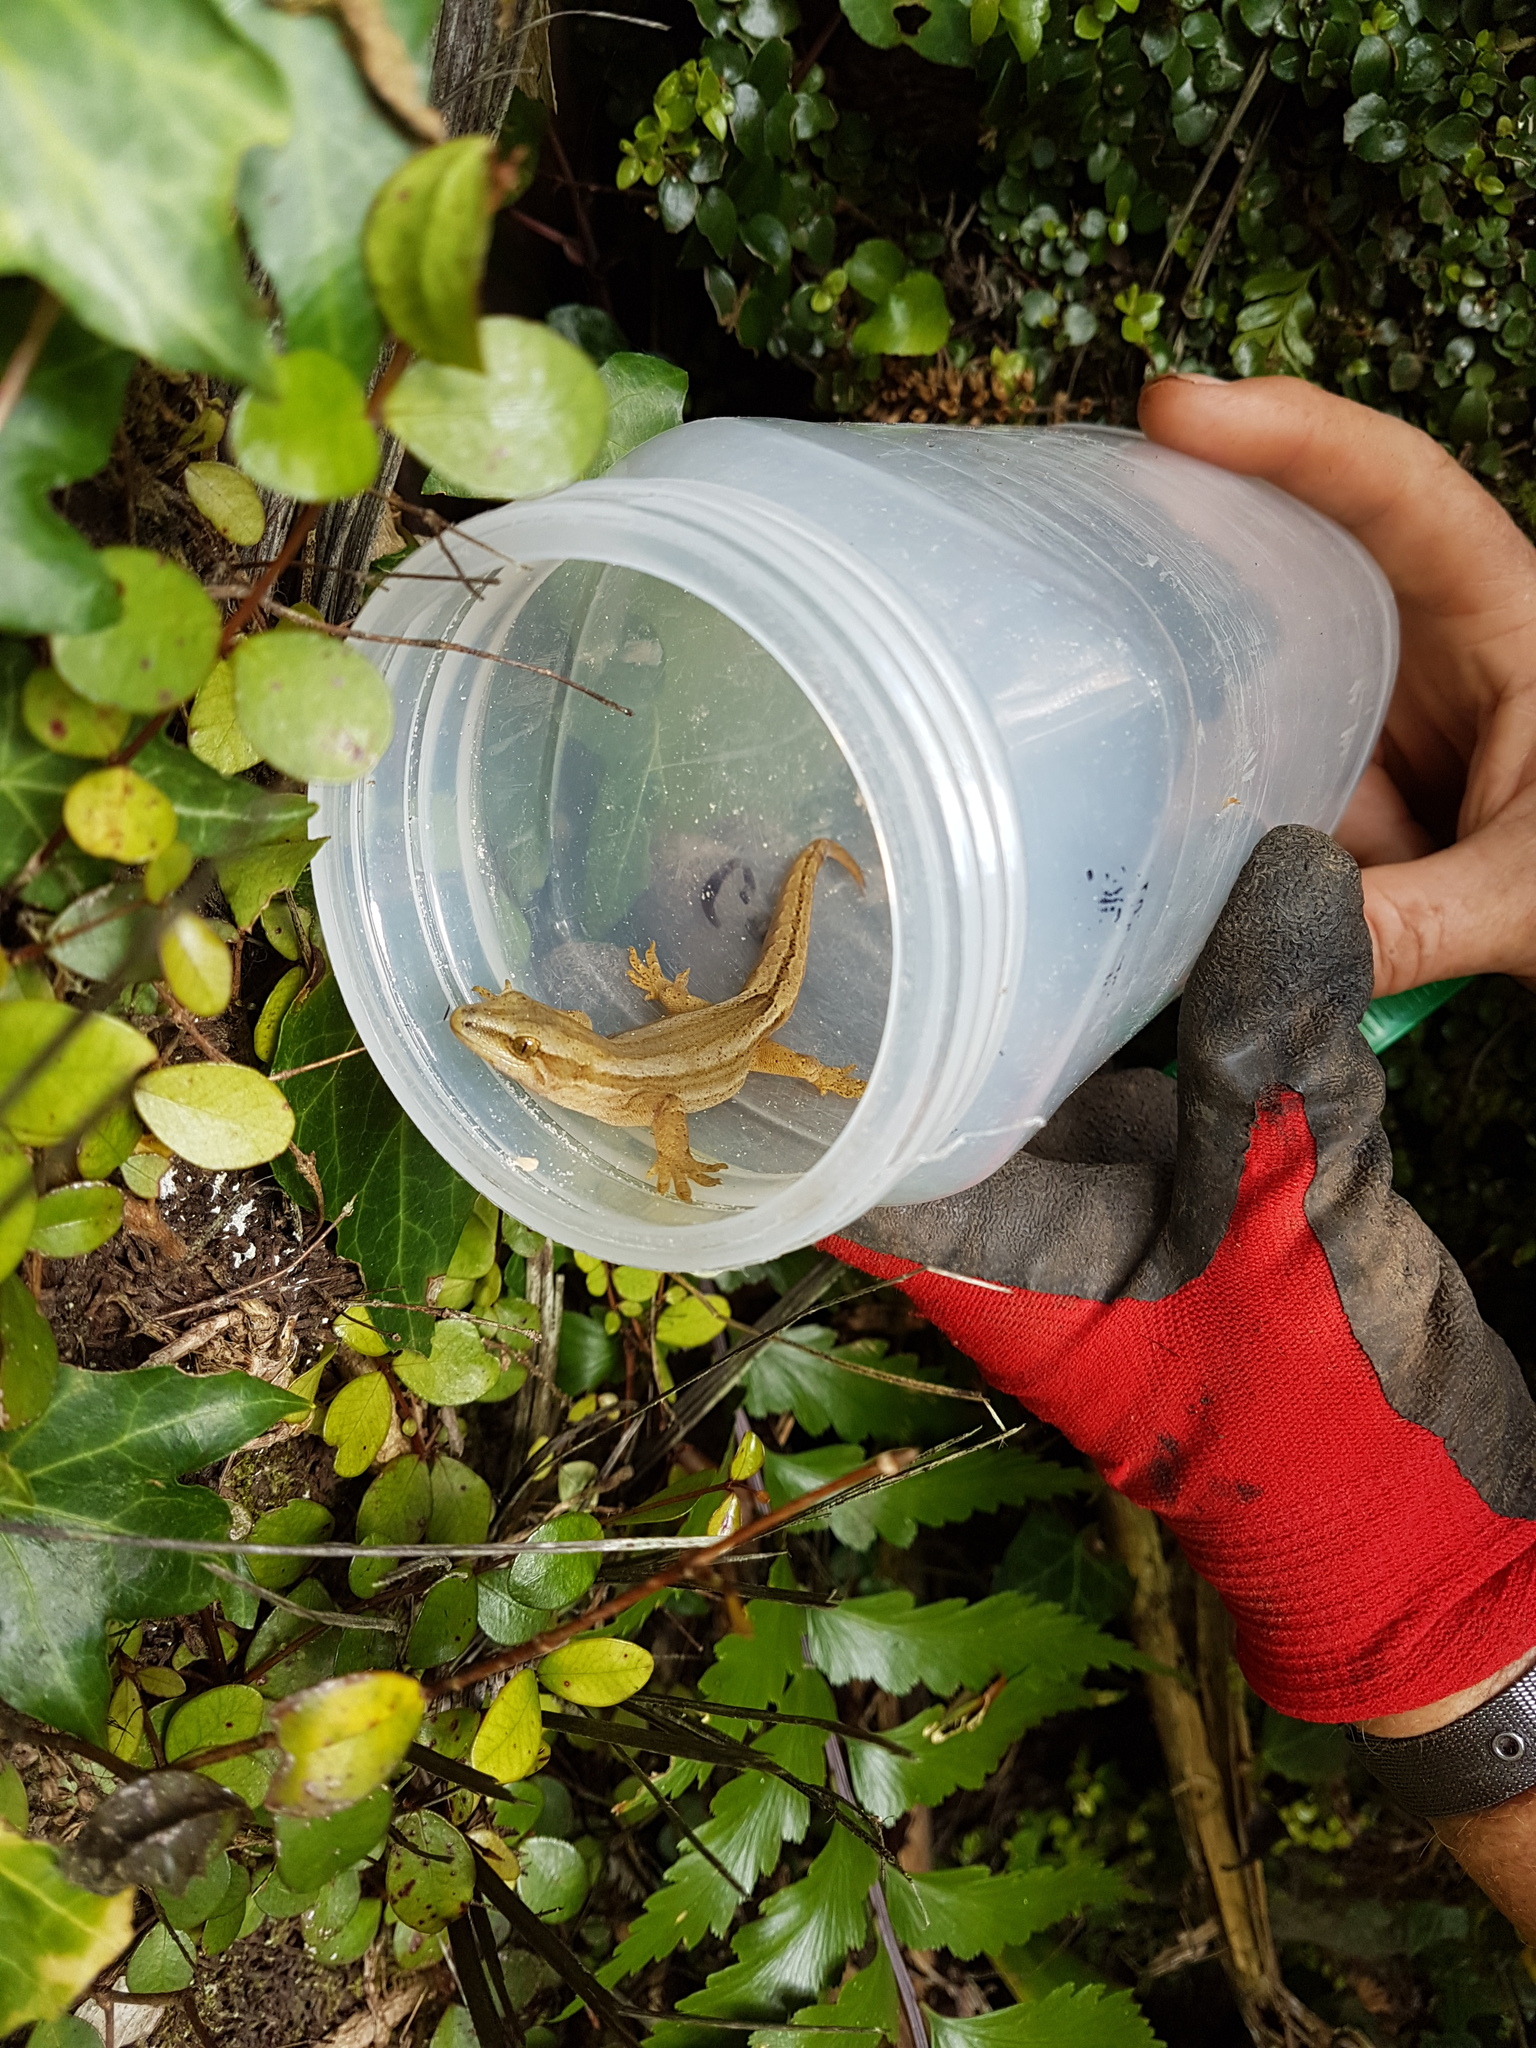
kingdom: Animalia
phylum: Chordata
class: Squamata
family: Diplodactylidae
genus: Woodworthia
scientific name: Woodworthia chrysosiretica
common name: Gold-striped gecko
